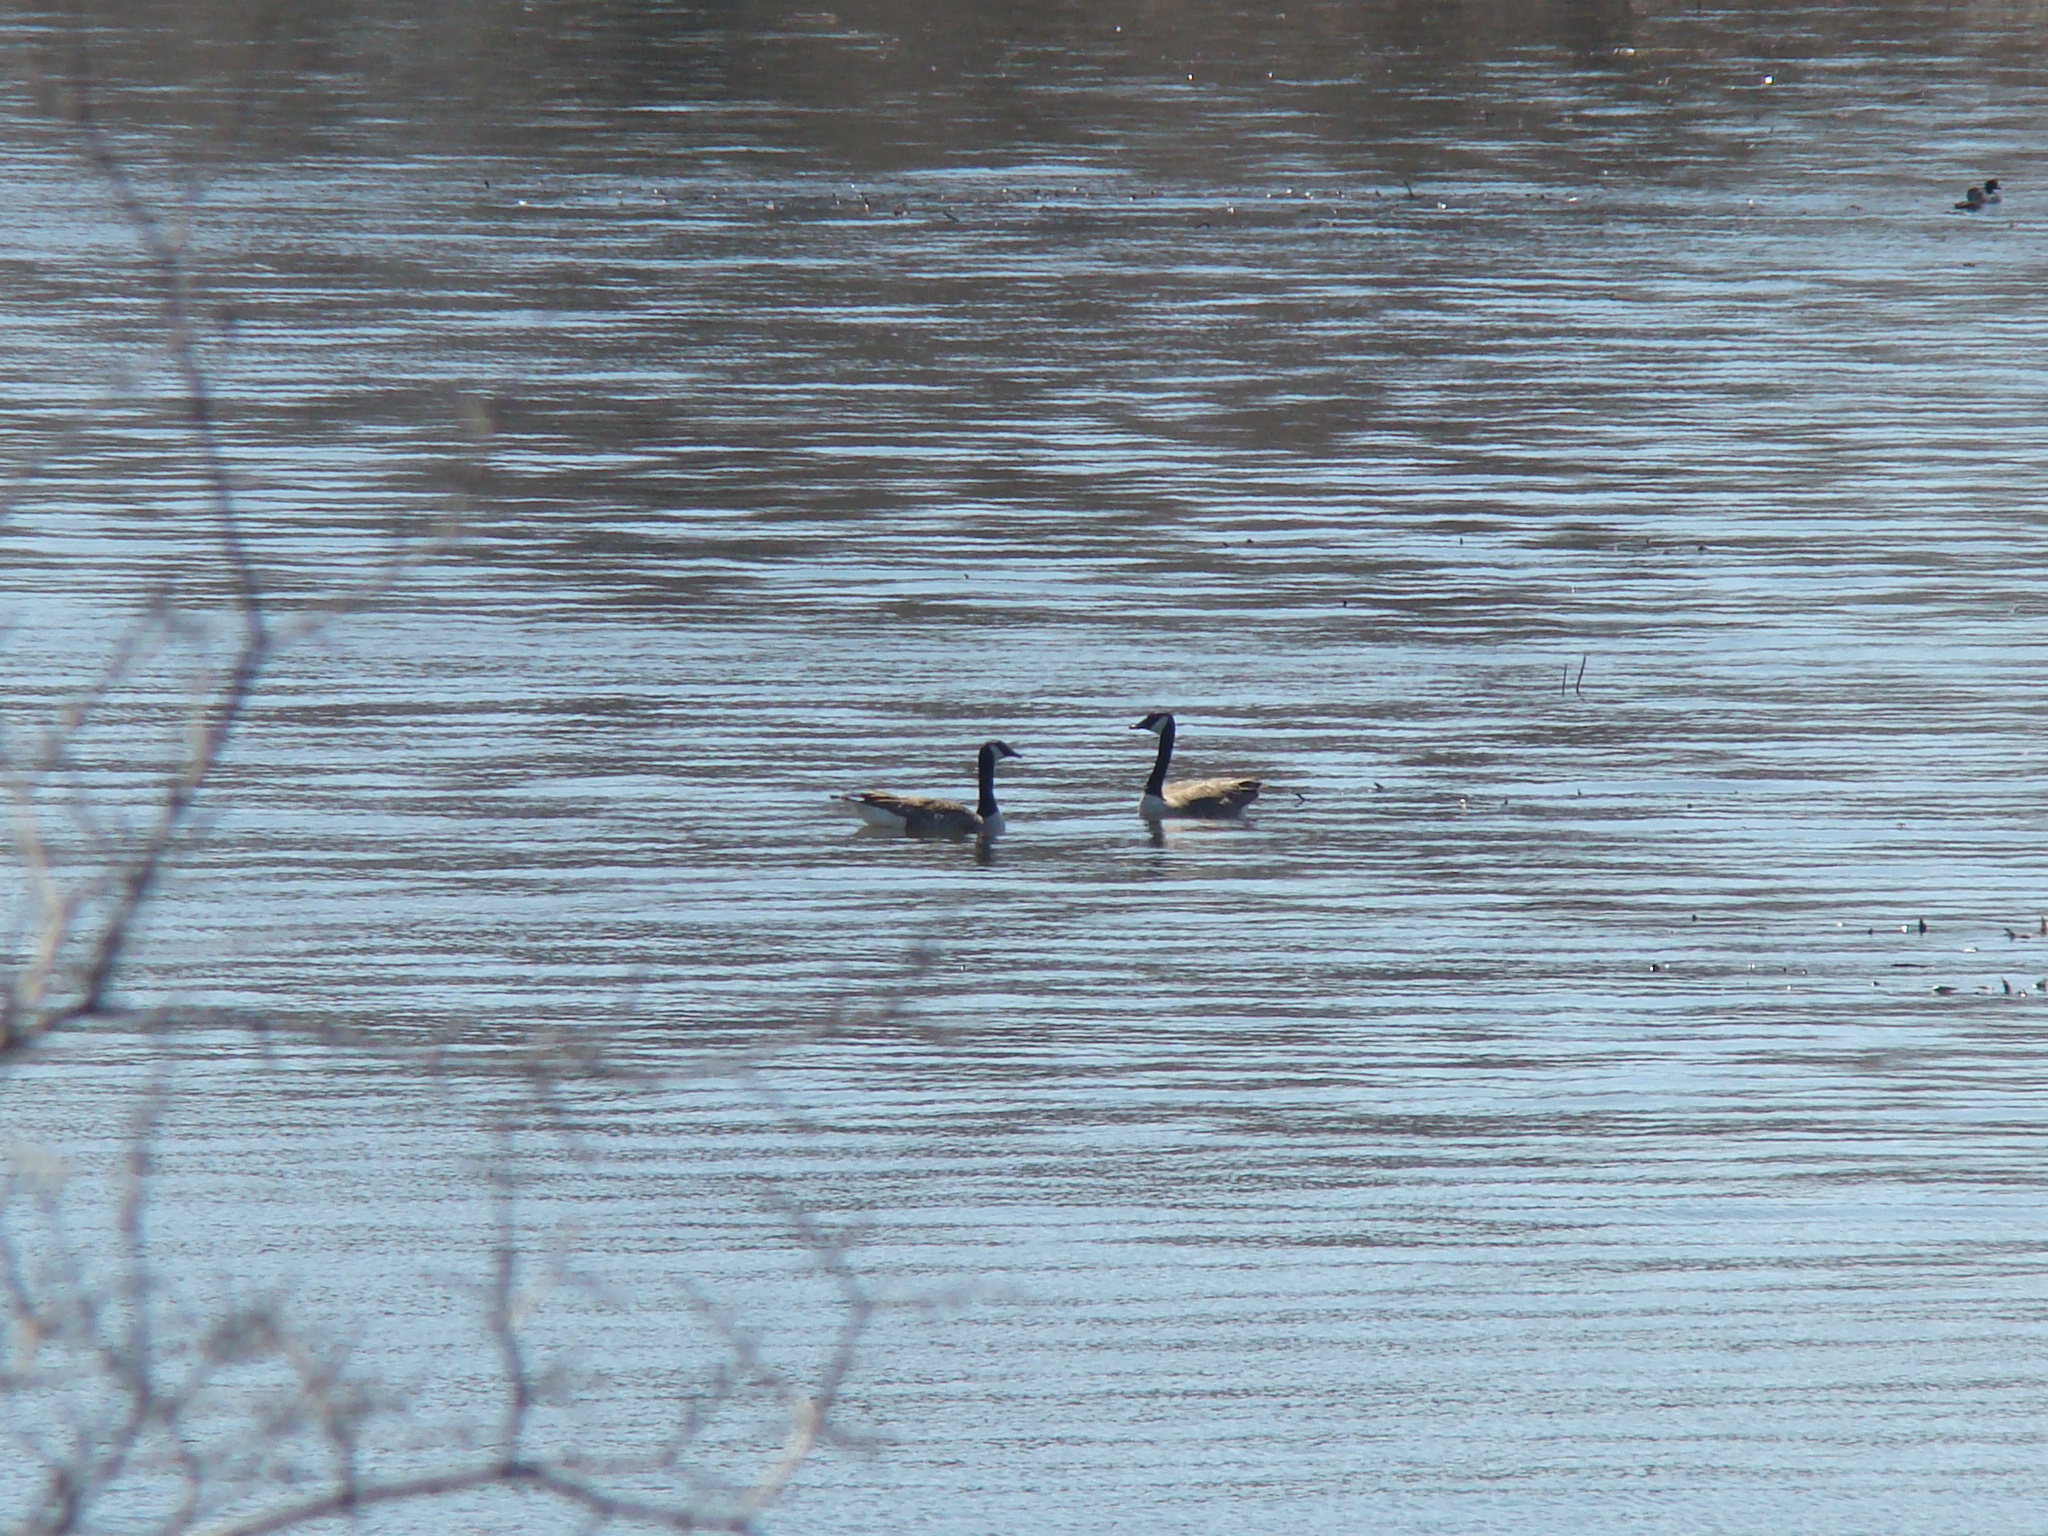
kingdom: Animalia
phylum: Chordata
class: Aves
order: Anseriformes
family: Anatidae
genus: Branta
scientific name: Branta canadensis
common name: Canada goose
